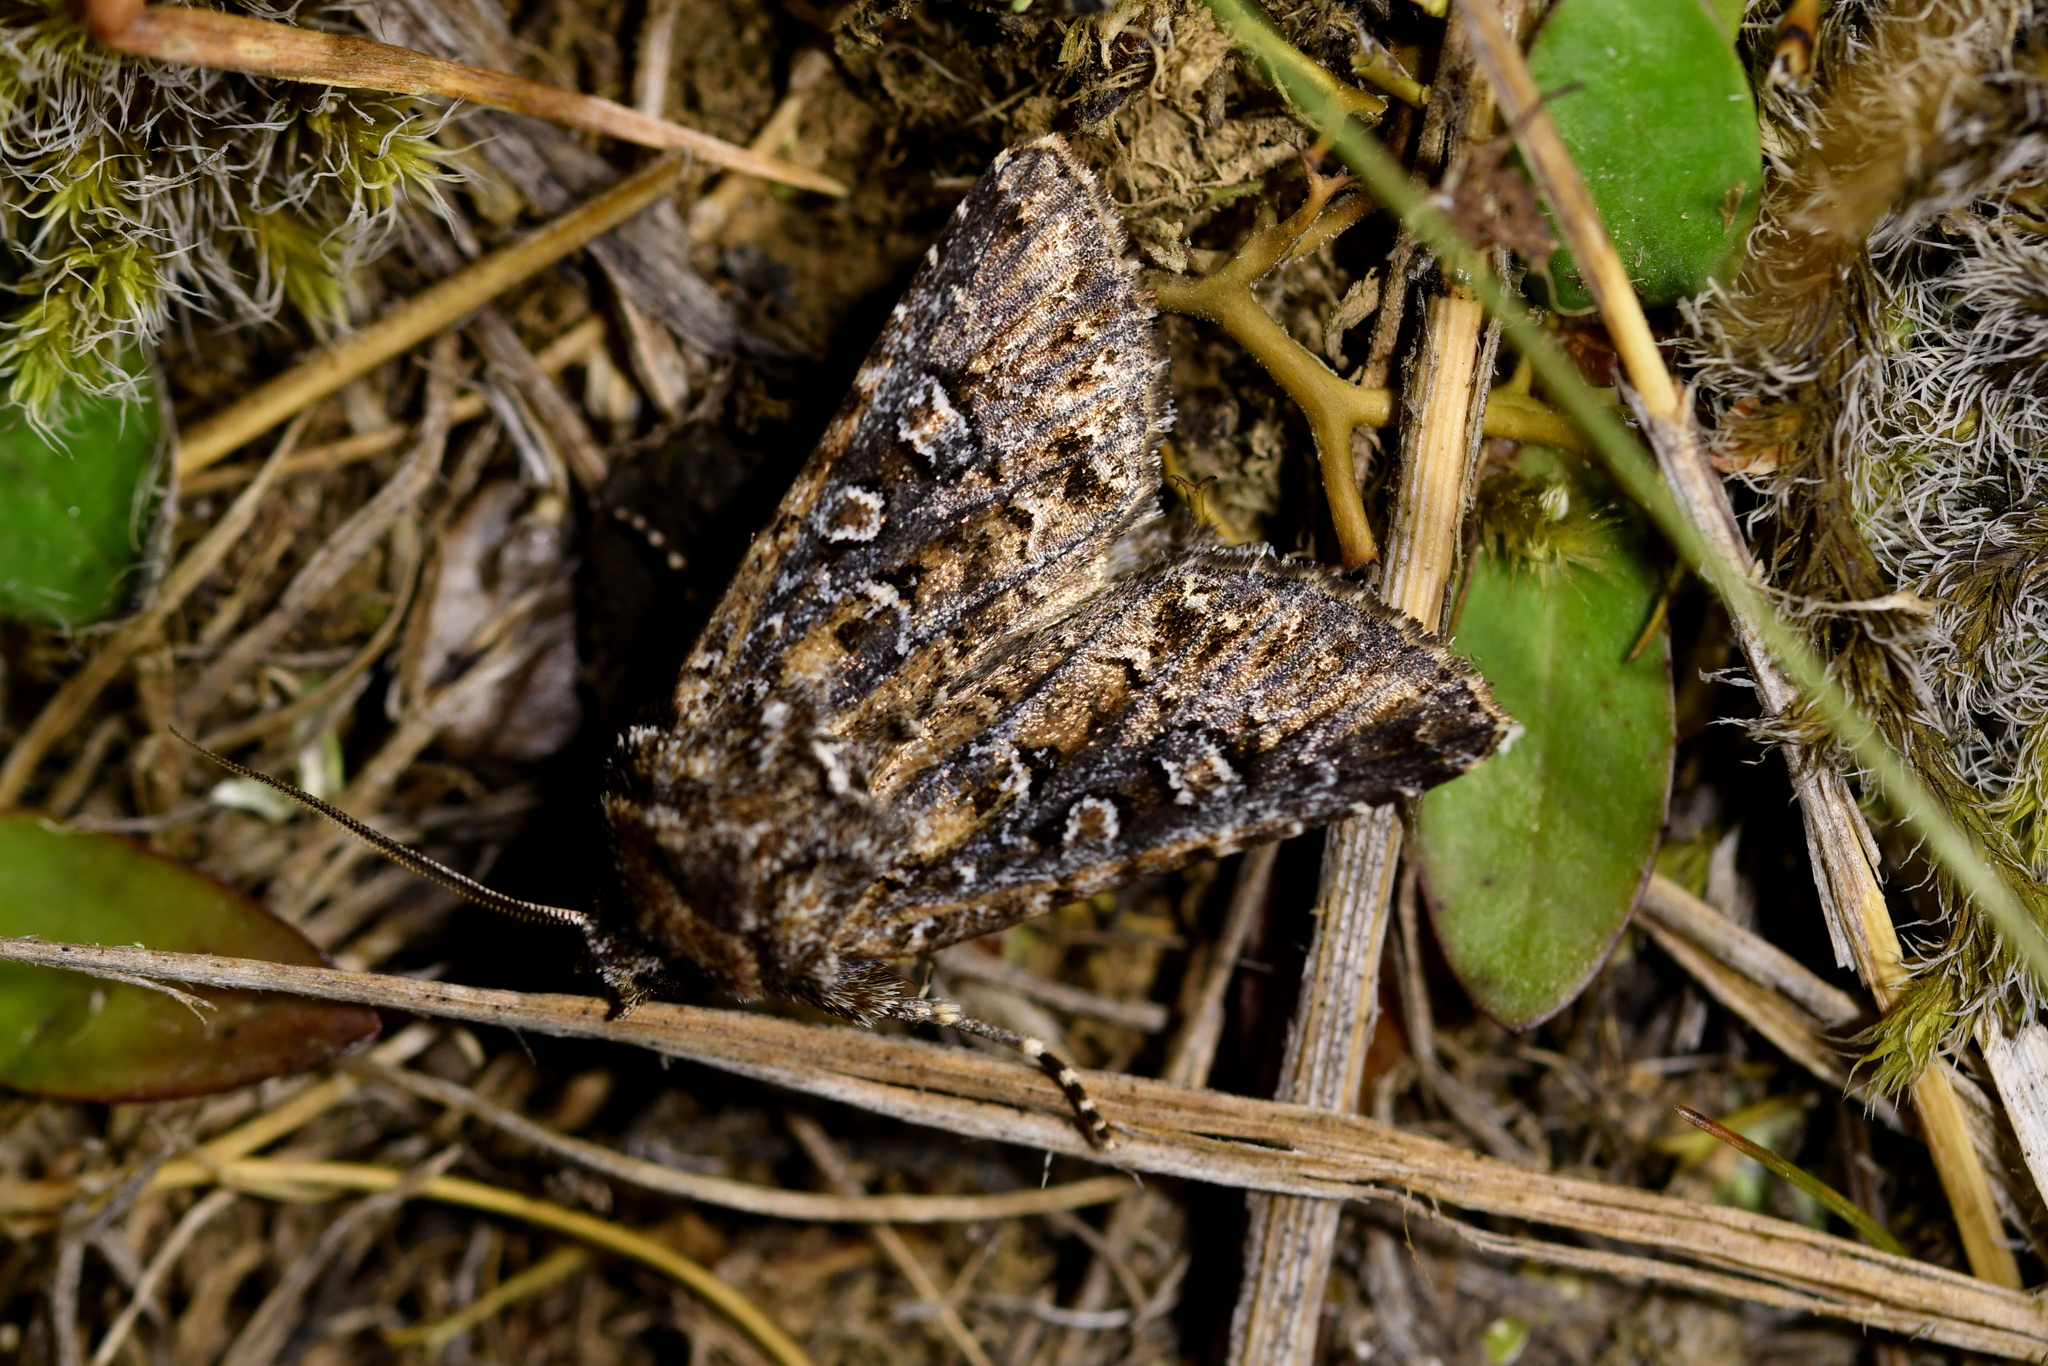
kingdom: Animalia
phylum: Arthropoda
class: Insecta
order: Lepidoptera
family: Noctuidae
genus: Ichneutica
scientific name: Ichneutica lithias
